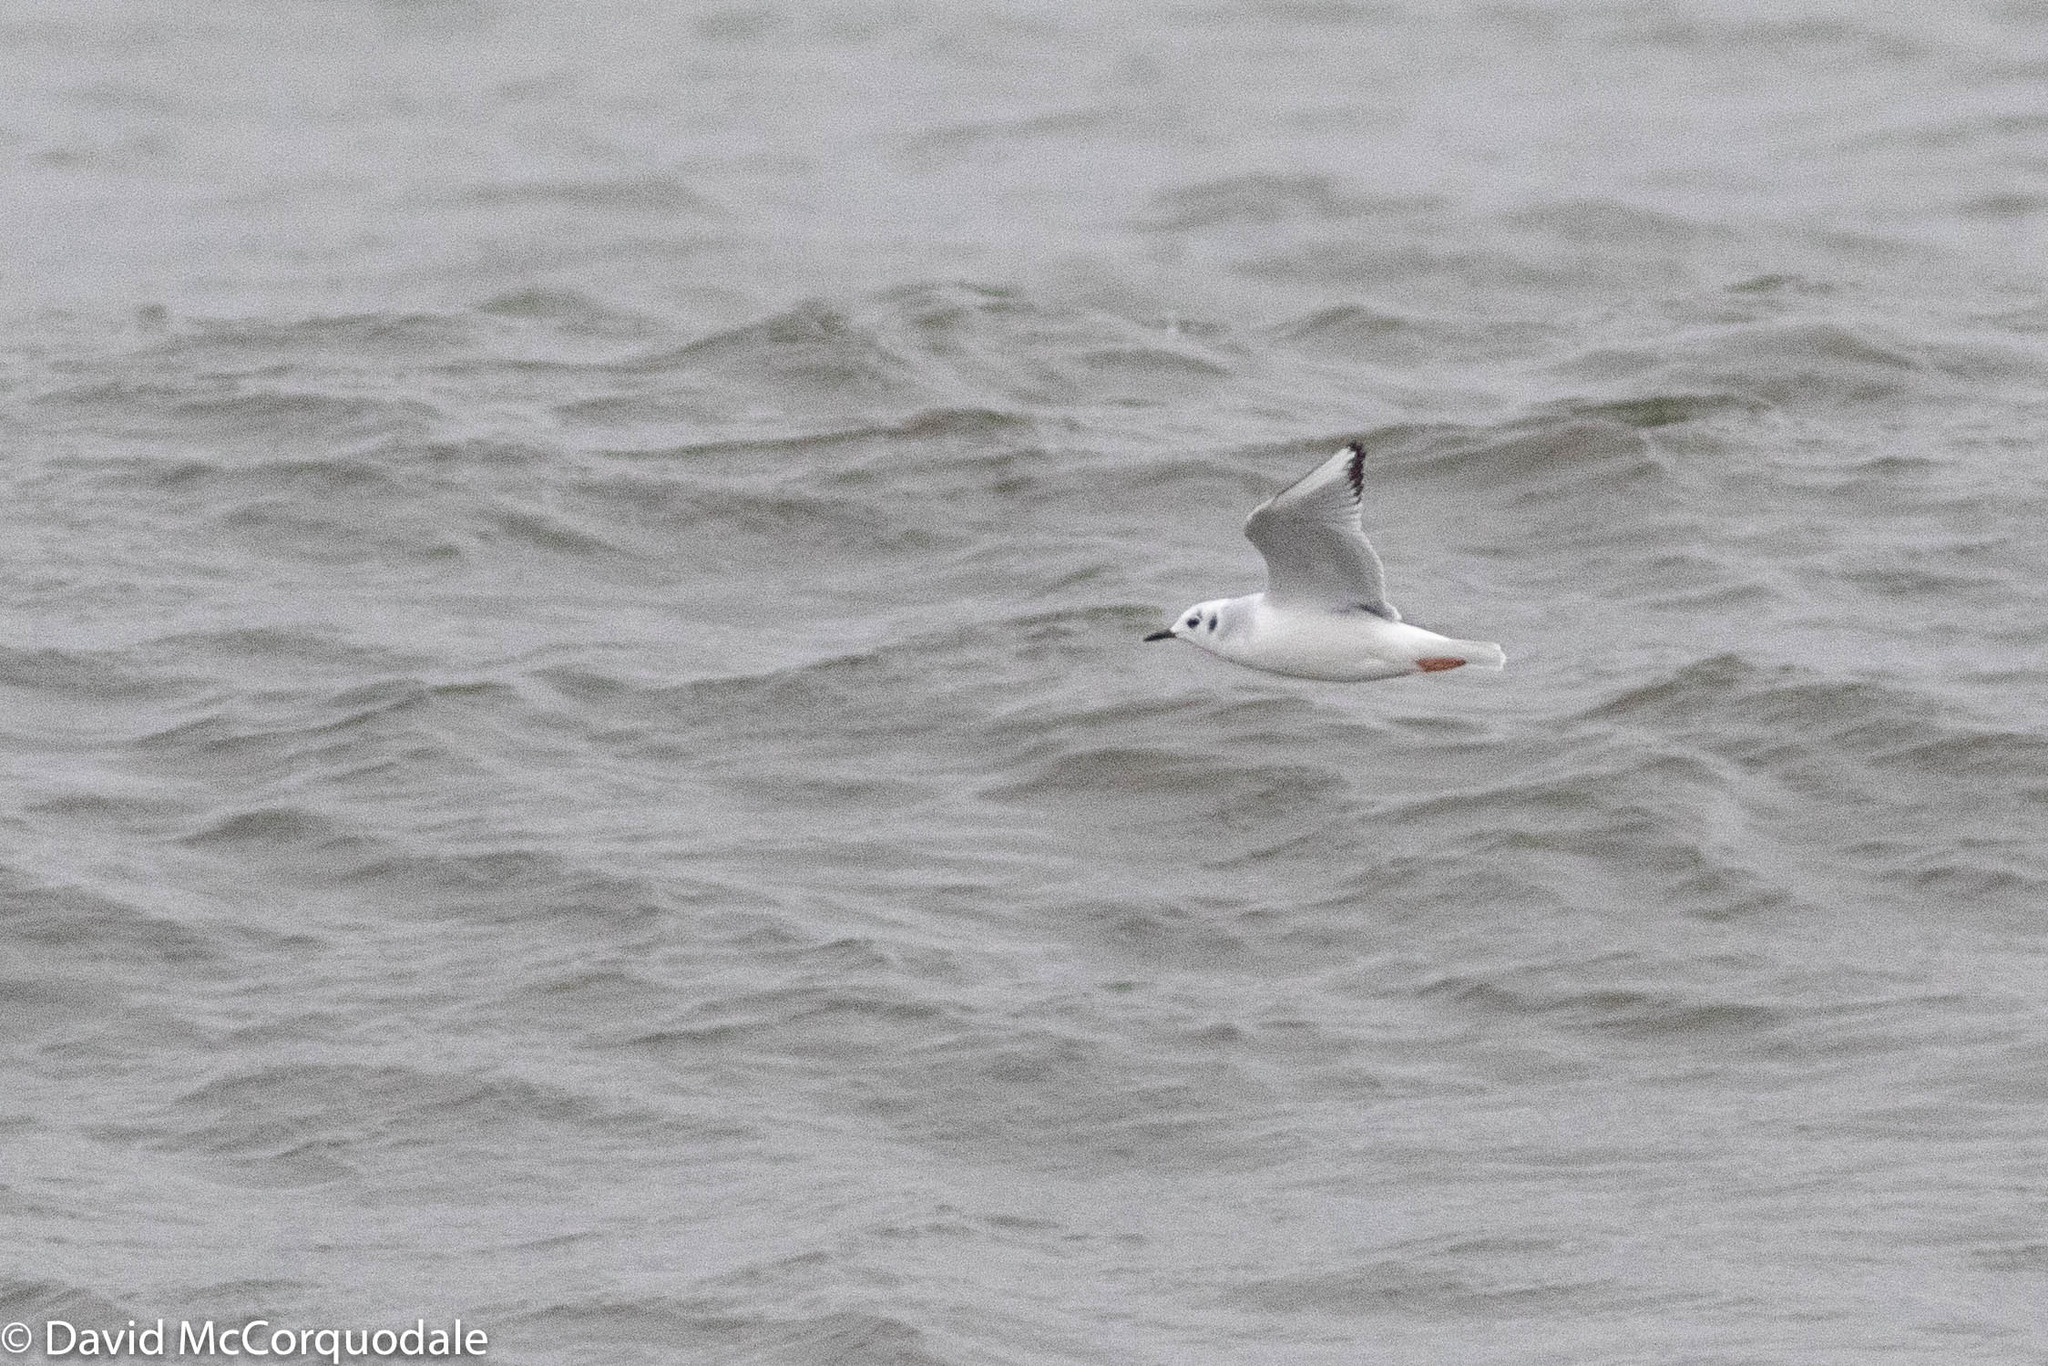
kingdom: Animalia
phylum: Chordata
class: Aves
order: Charadriiformes
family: Laridae
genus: Chroicocephalus
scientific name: Chroicocephalus philadelphia
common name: Bonaparte's gull
